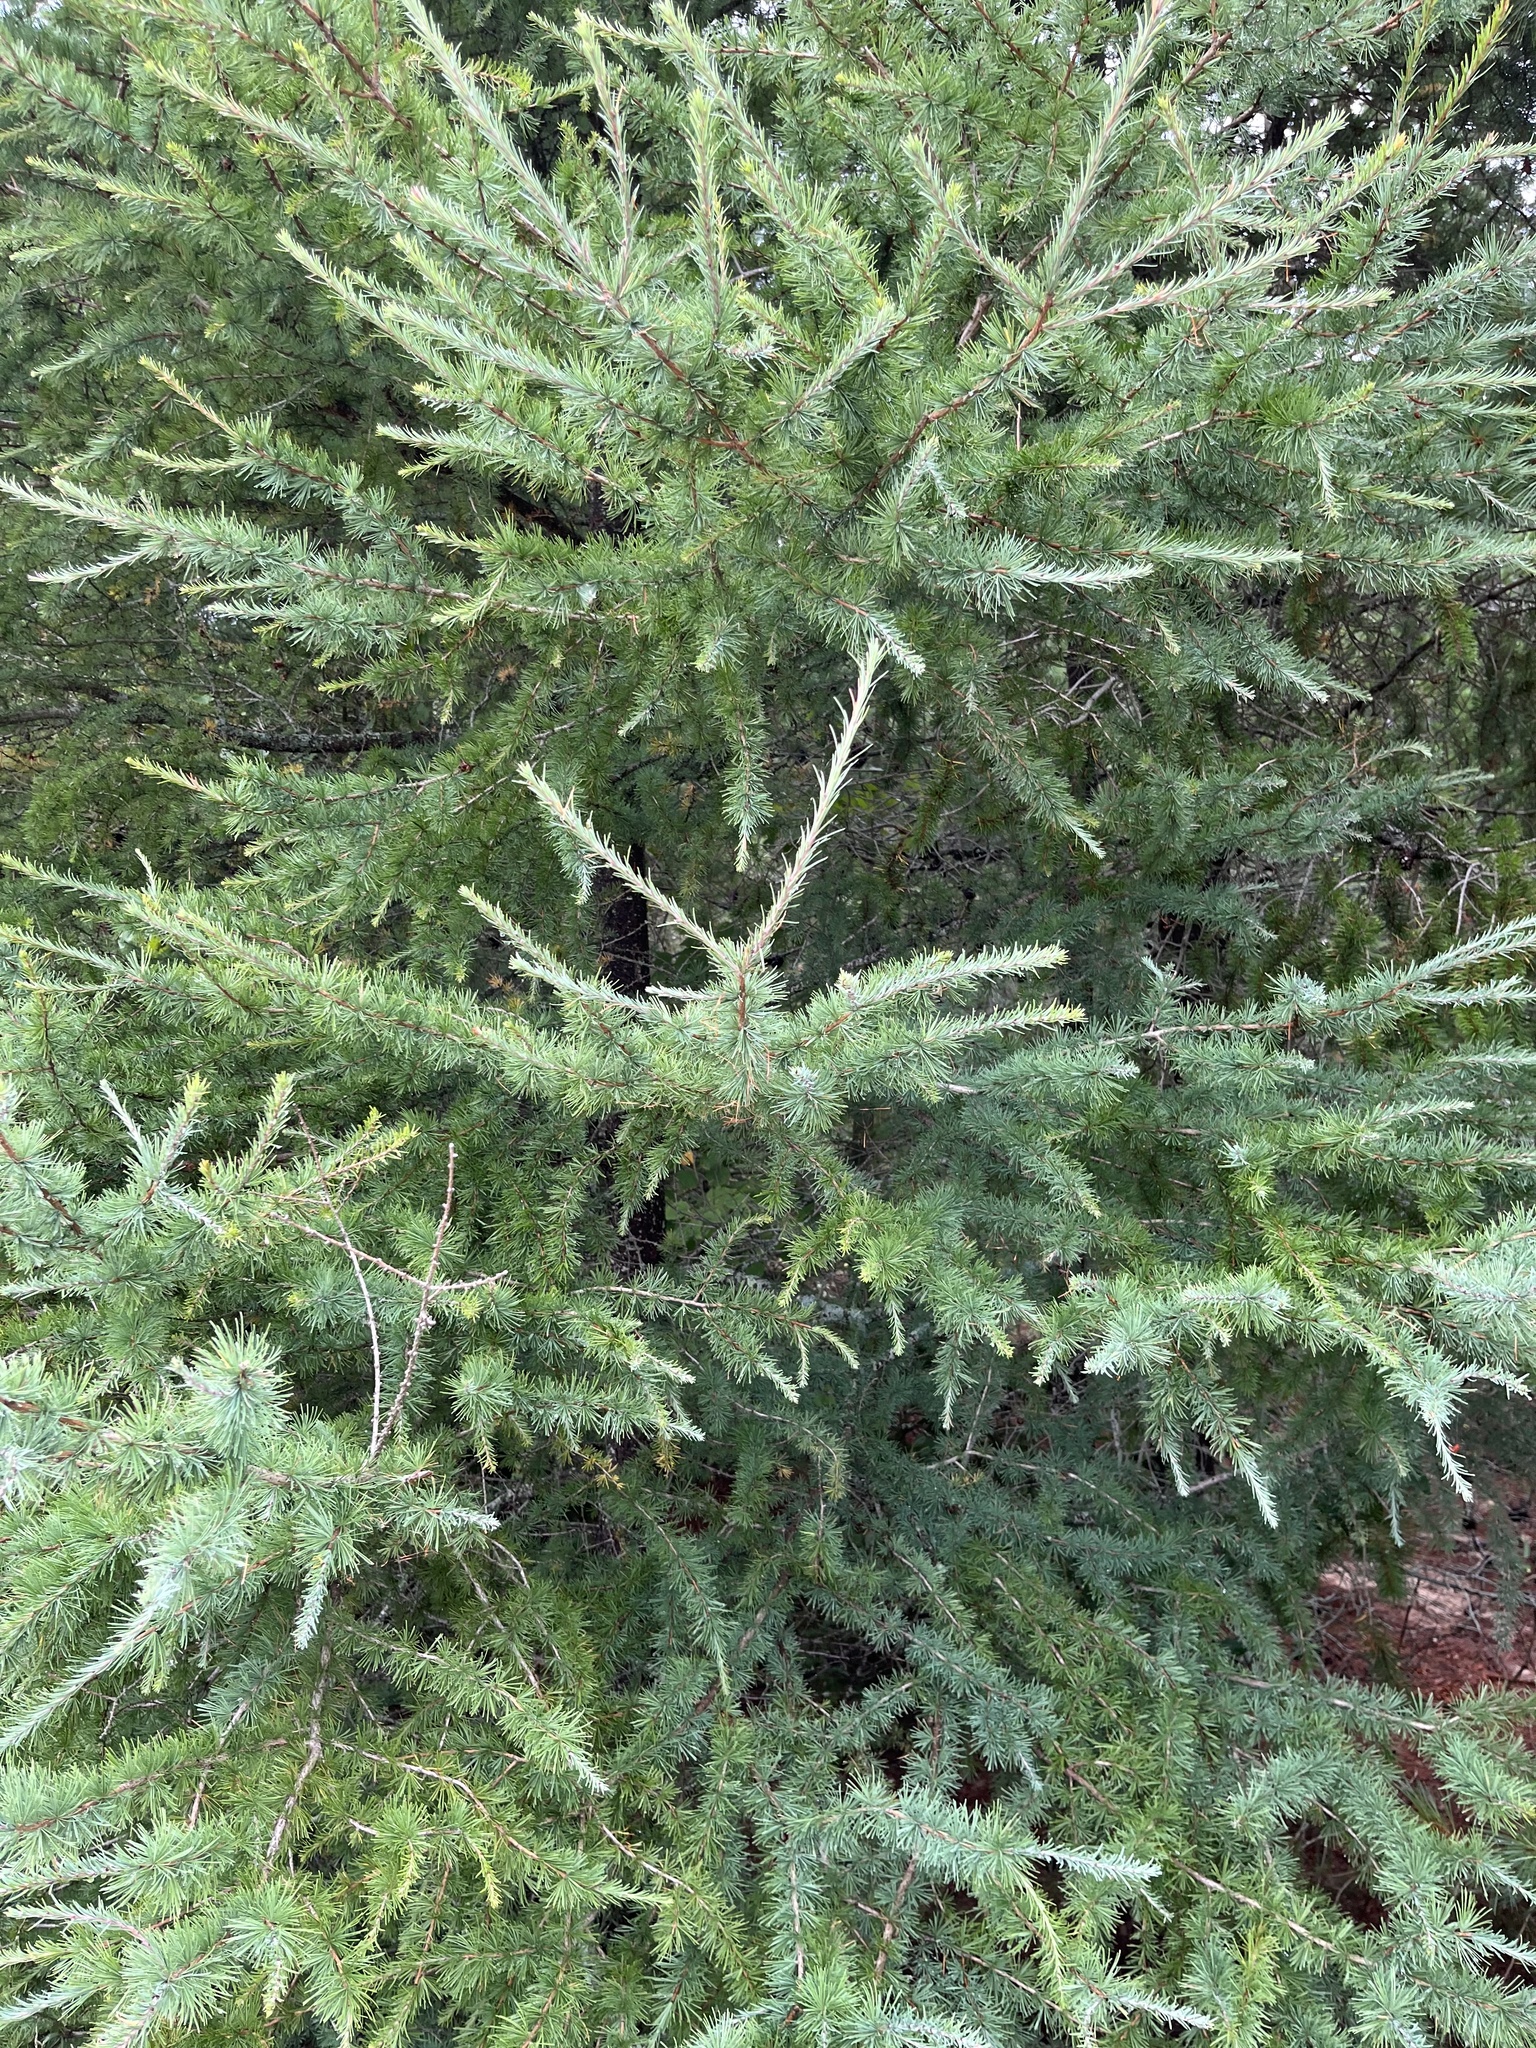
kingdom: Plantae
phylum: Tracheophyta
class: Pinopsida
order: Pinales
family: Pinaceae
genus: Larix
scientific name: Larix laricina
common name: American larch
